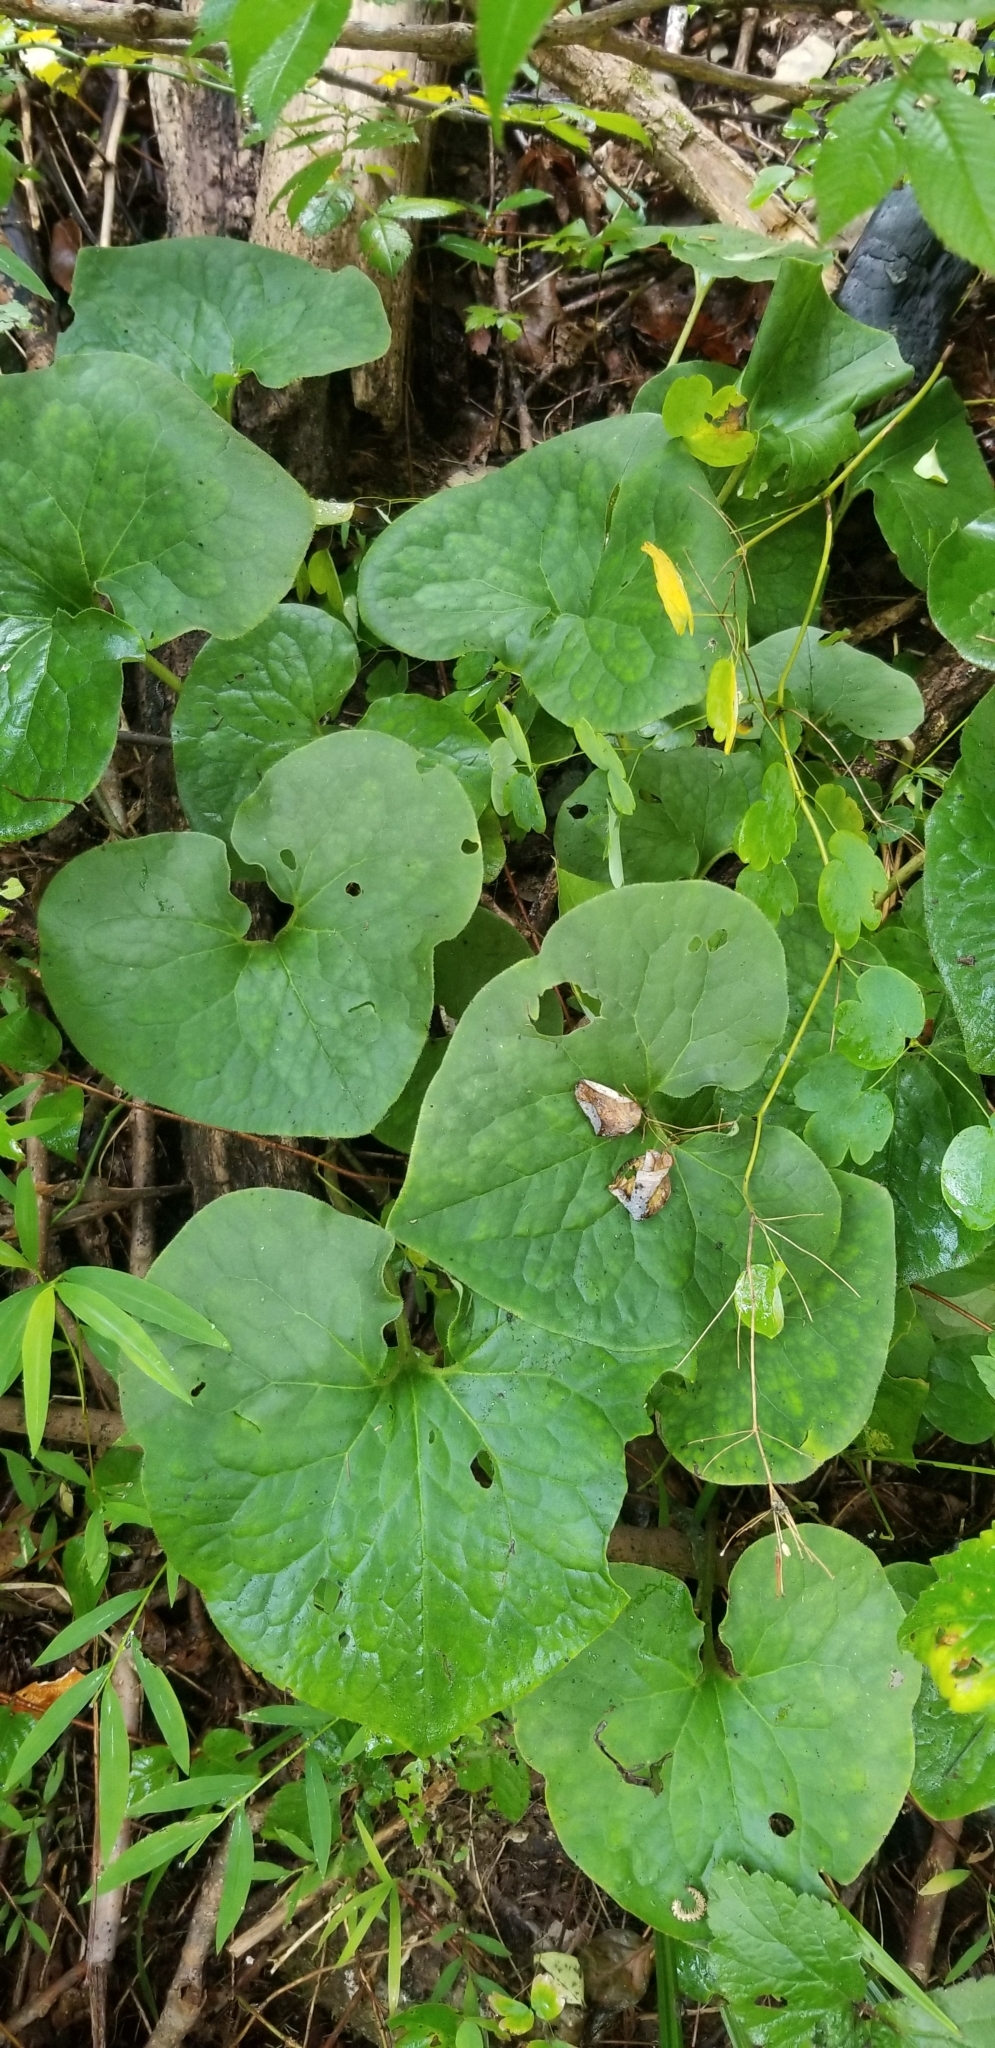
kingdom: Plantae
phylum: Tracheophyta
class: Magnoliopsida
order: Piperales
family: Aristolochiaceae
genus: Asarum
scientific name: Asarum canadense
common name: Wild ginger
